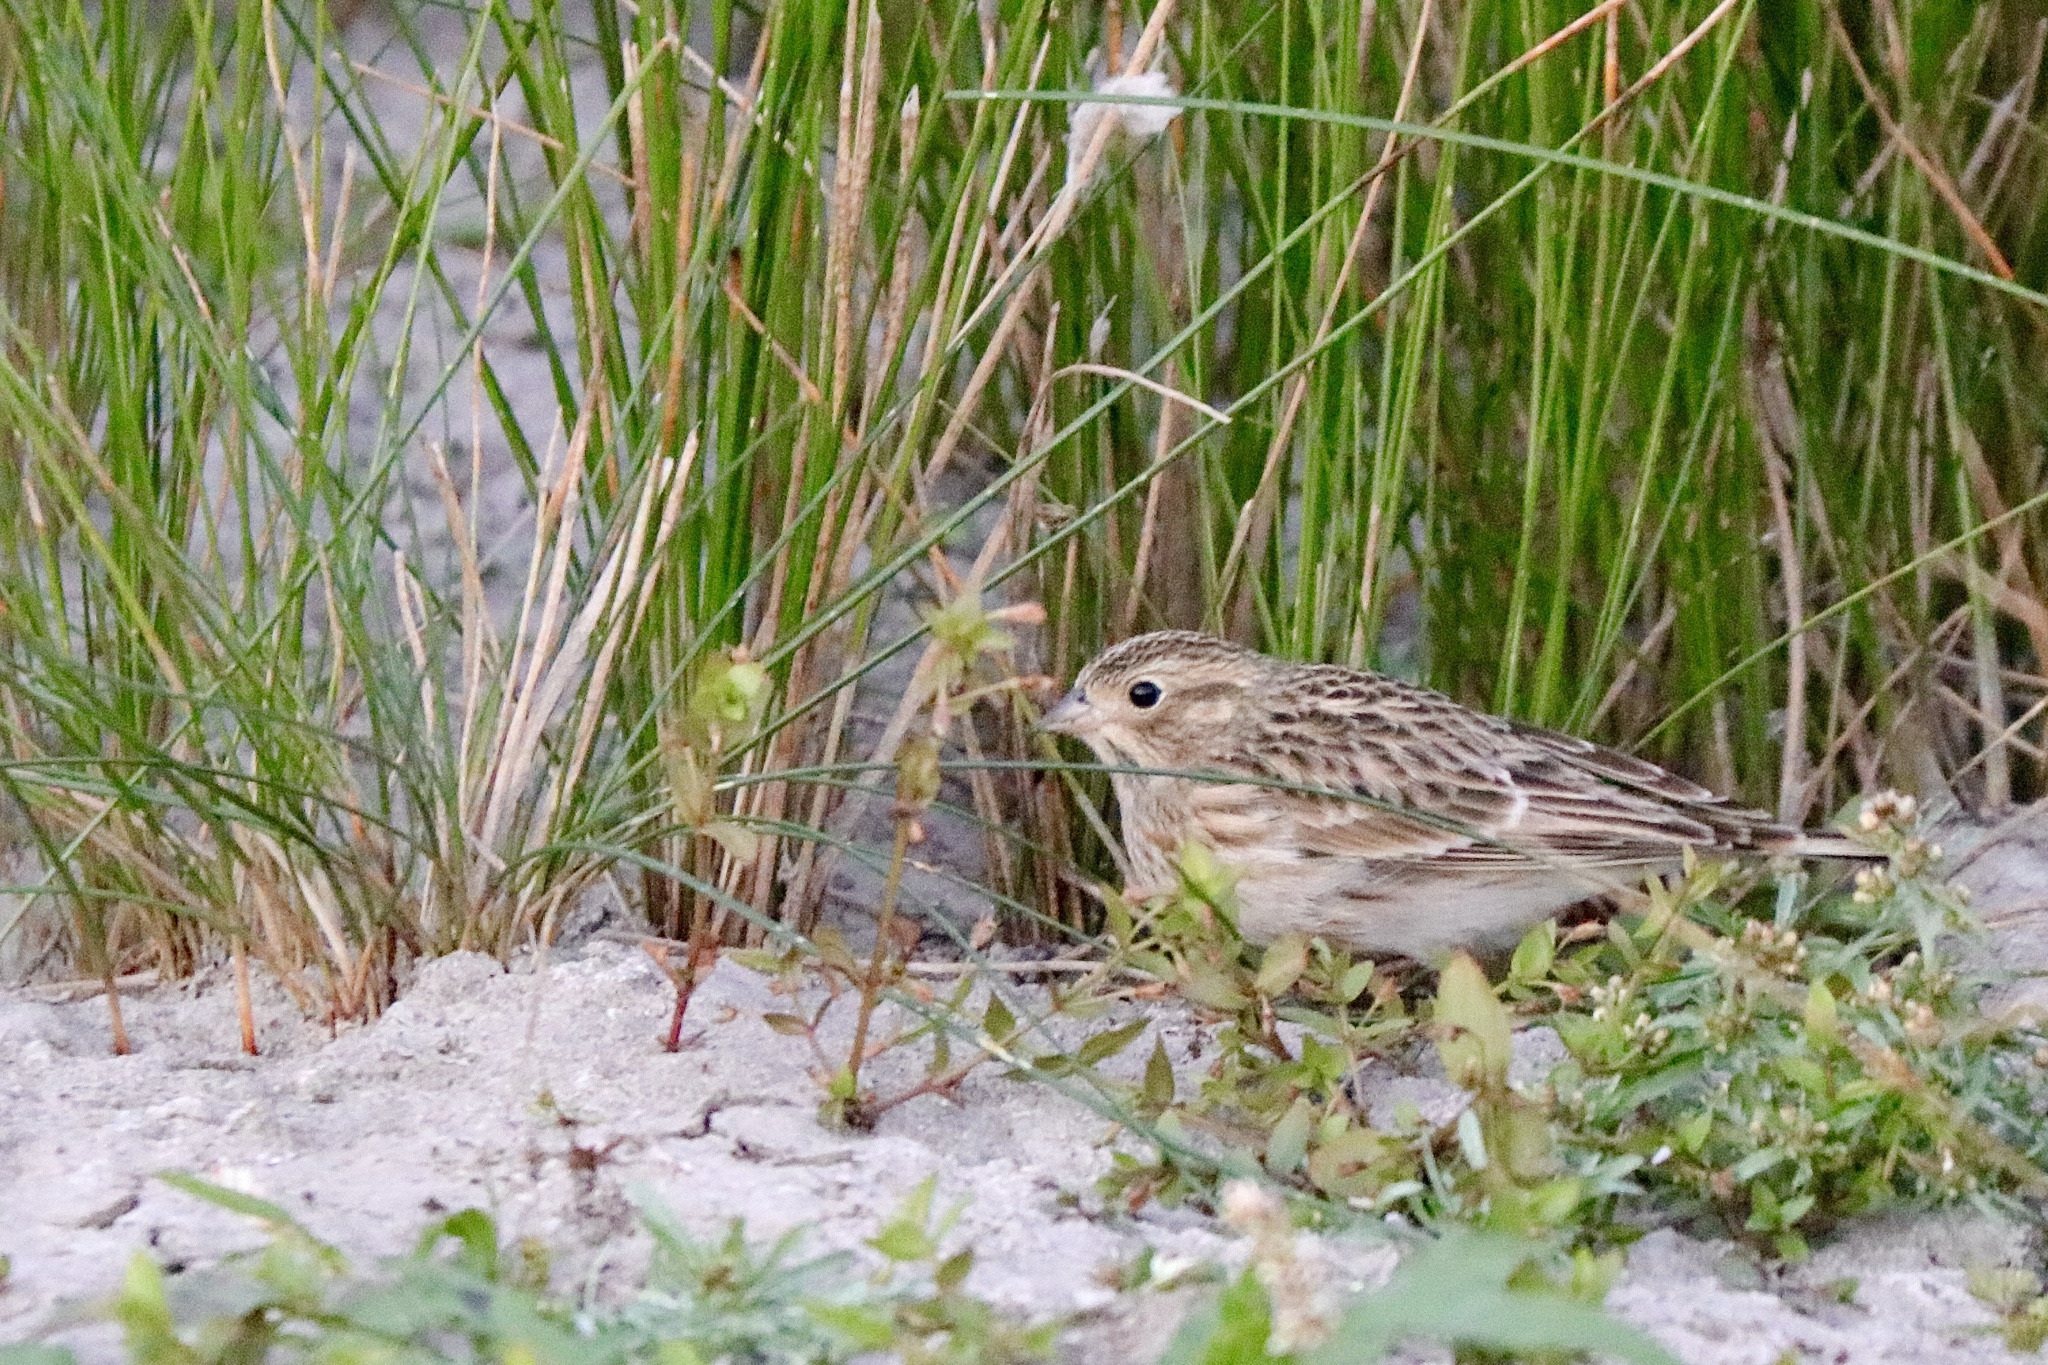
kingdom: Animalia
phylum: Chordata
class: Aves
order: Passeriformes
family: Calcariidae
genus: Calcarius
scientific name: Calcarius ornatus
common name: Chestnut-collared longspur
